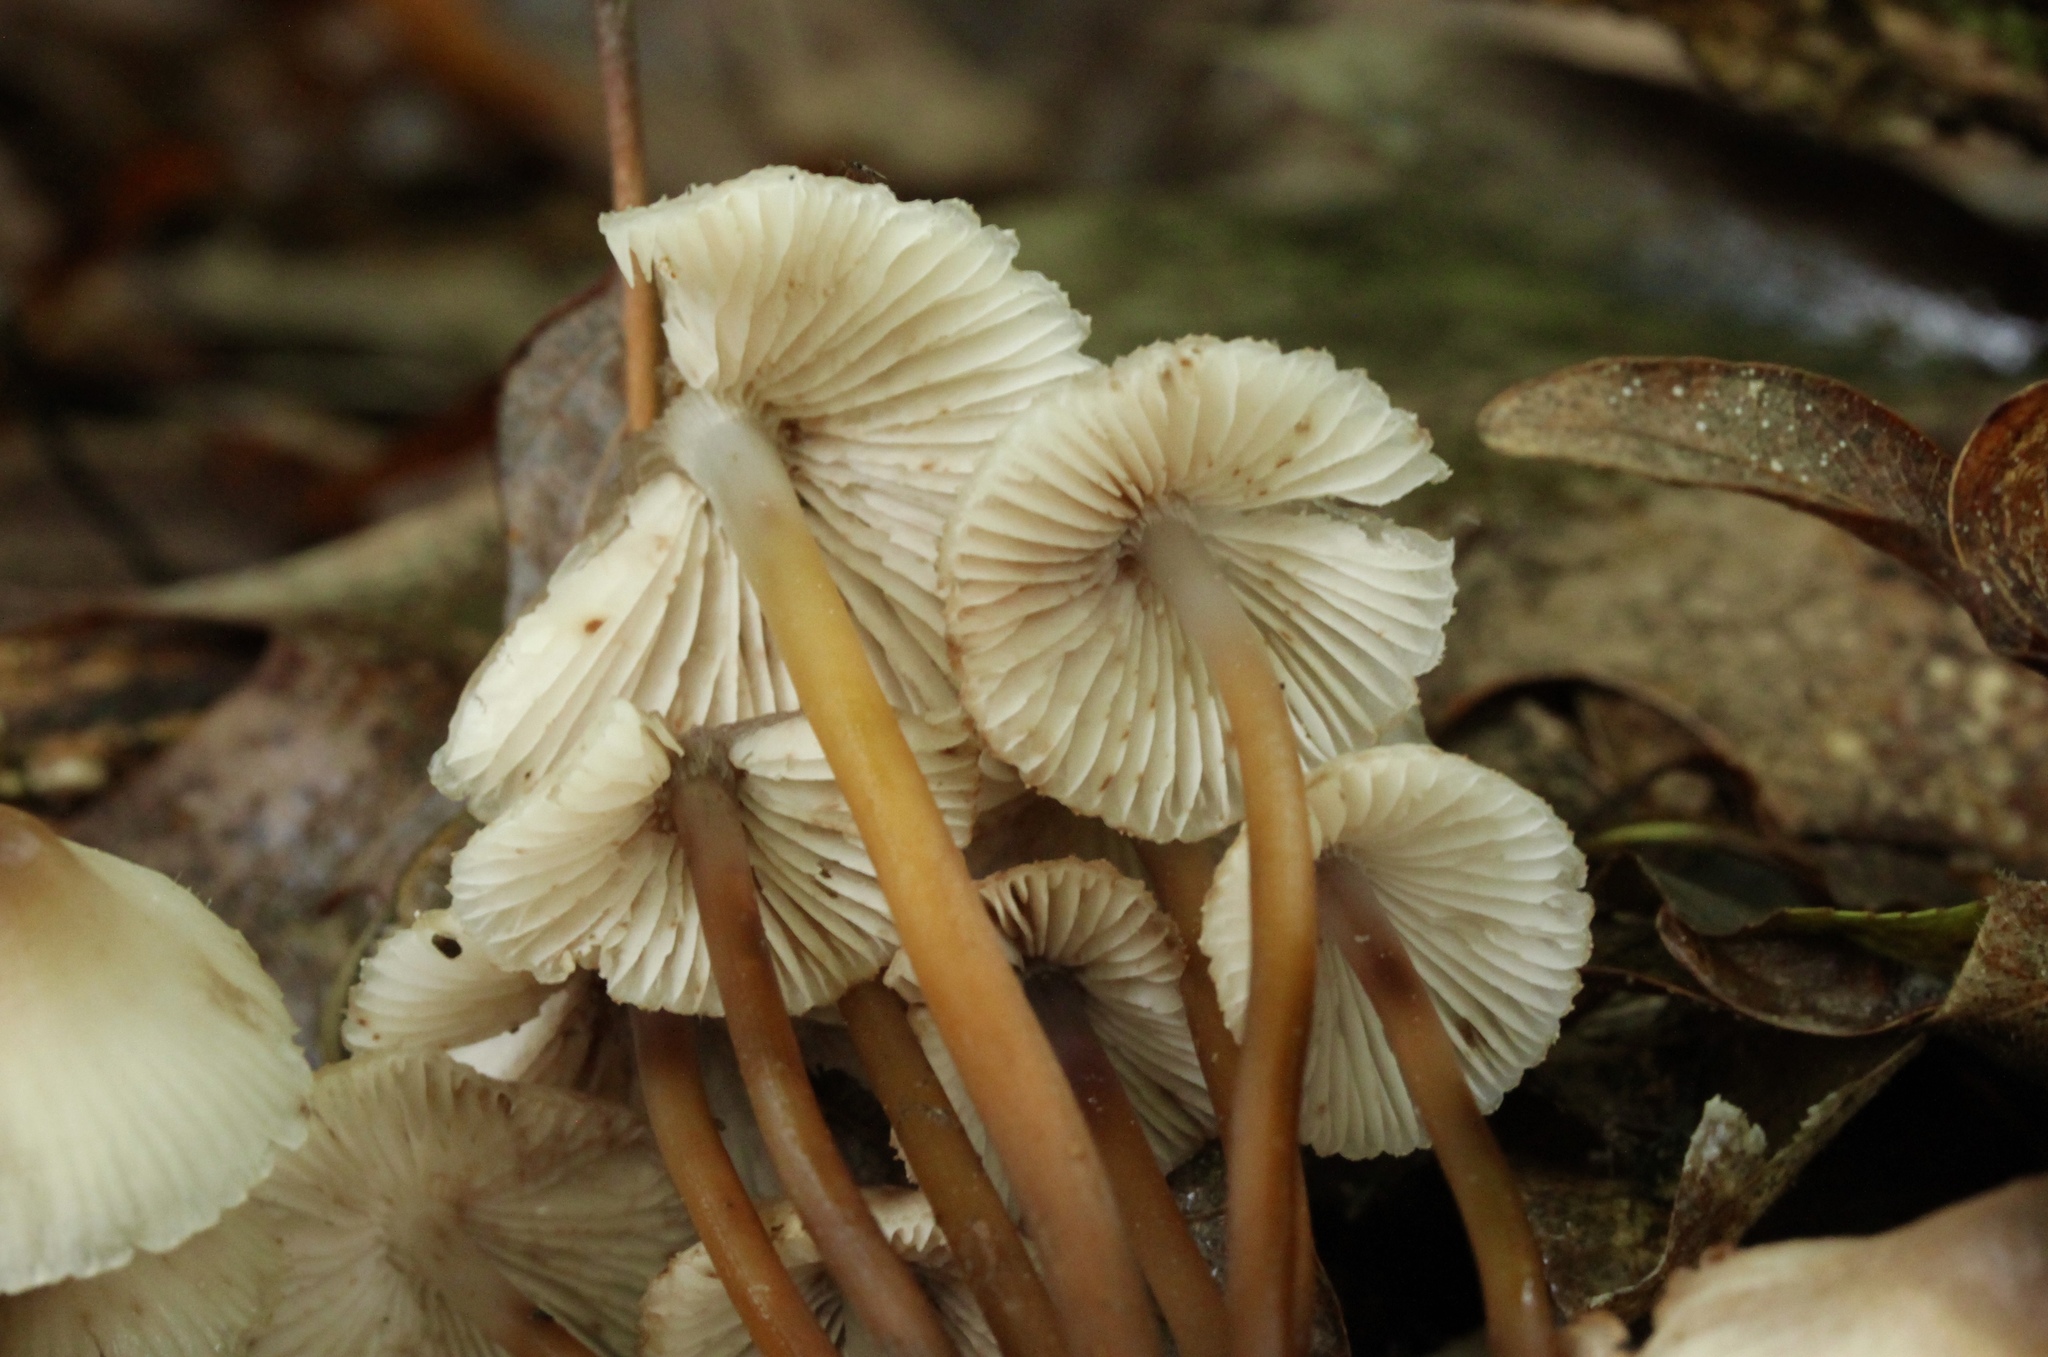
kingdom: Fungi
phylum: Basidiomycota
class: Agaricomycetes
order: Agaricales
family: Mycenaceae
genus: Mycena
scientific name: Mycena inclinata
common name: Clustered bonnet
